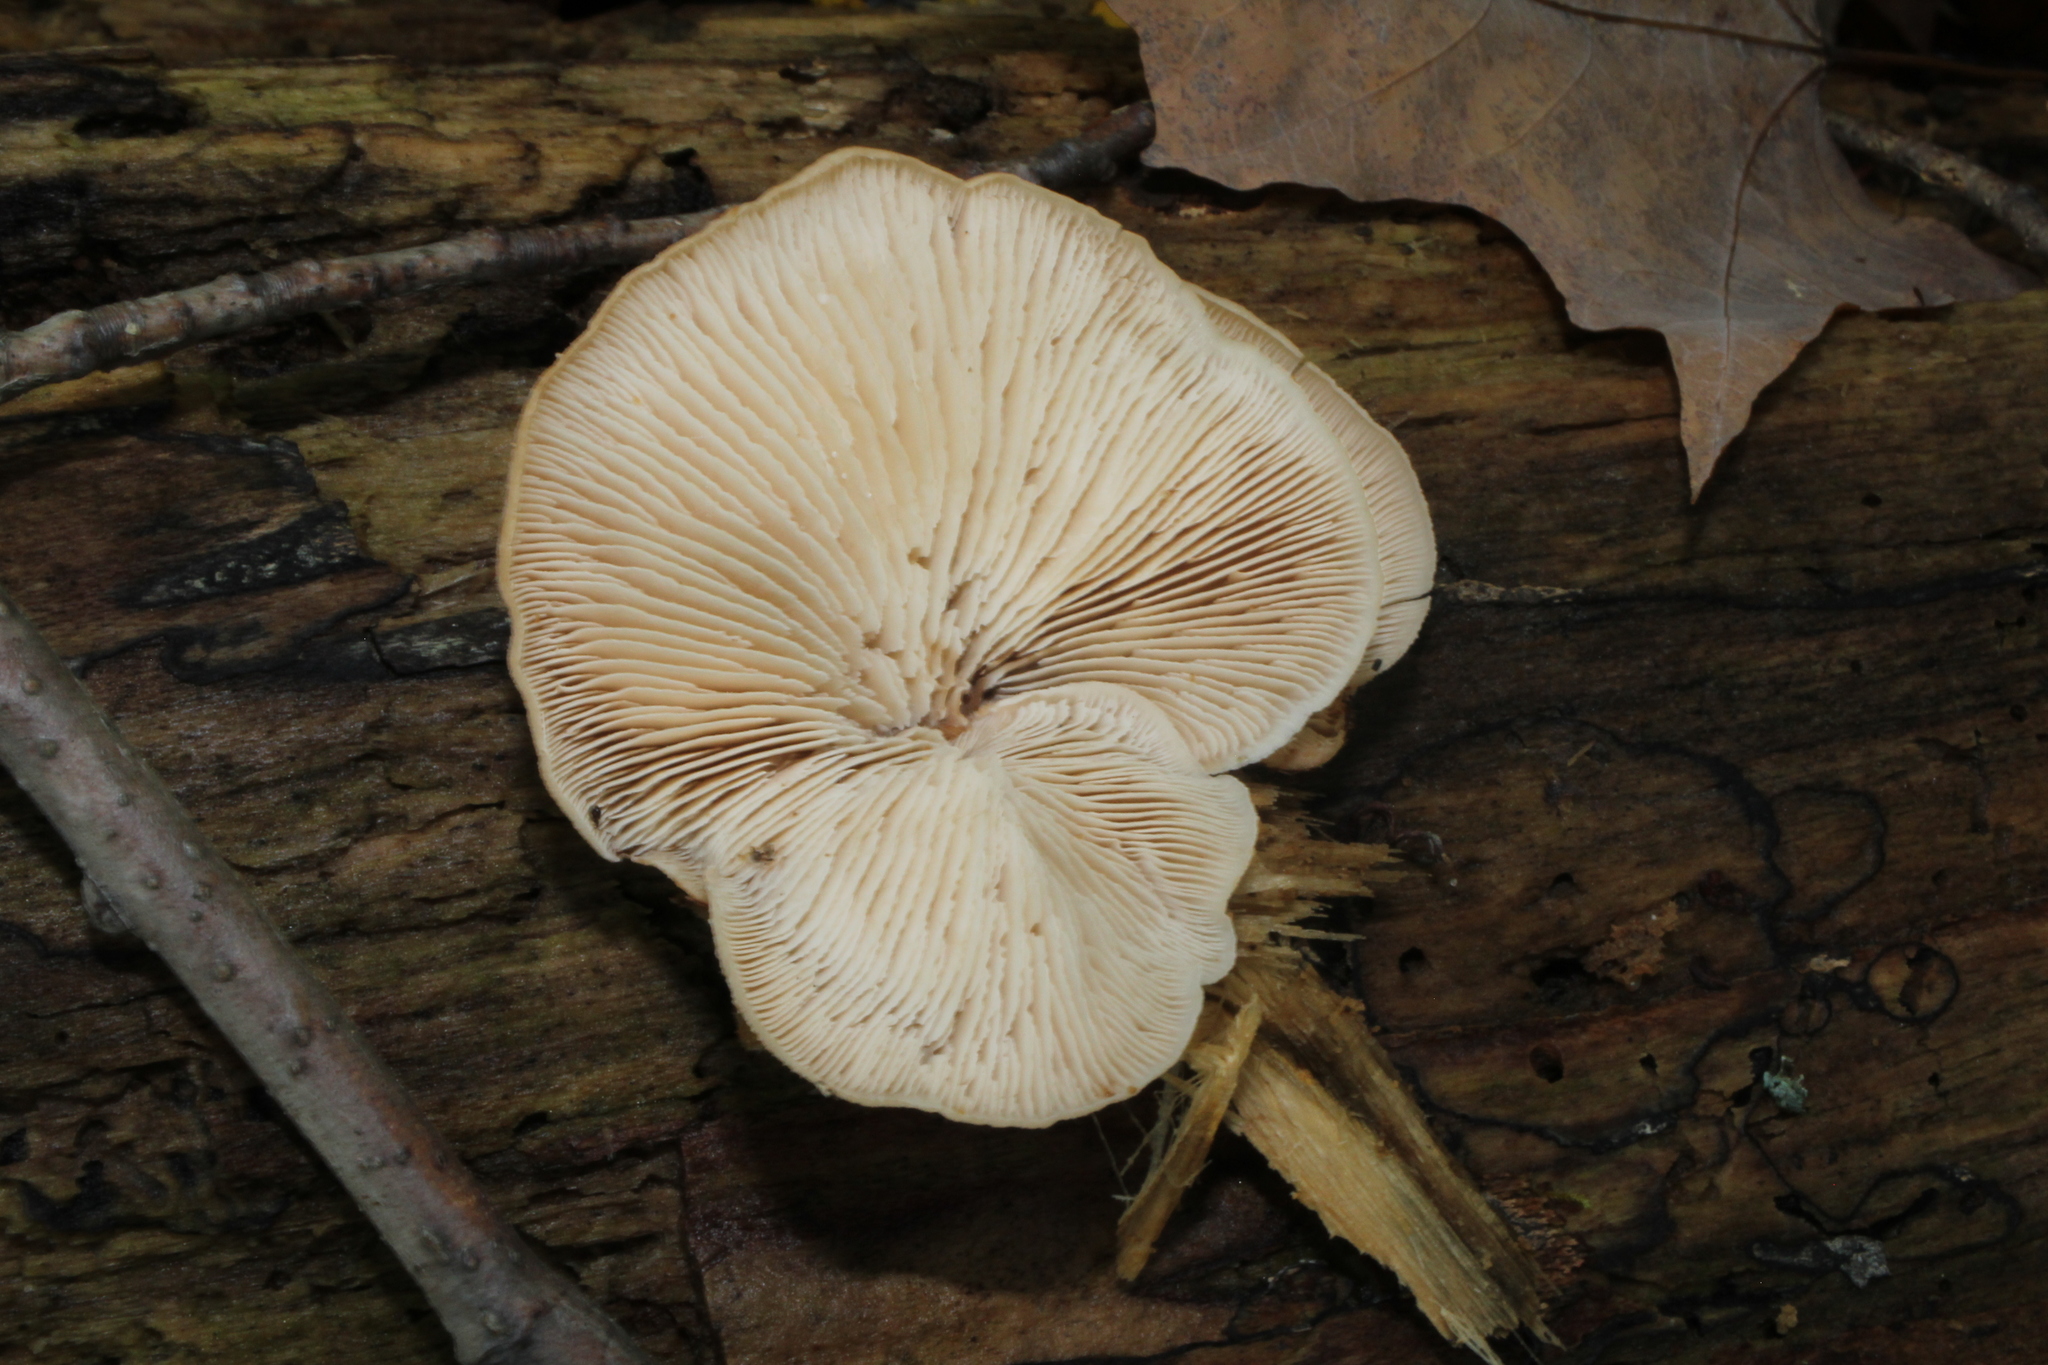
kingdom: Fungi
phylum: Basidiomycota
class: Agaricomycetes
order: Russulales
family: Auriscalpiaceae
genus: Lentinellus
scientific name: Lentinellus ursinus
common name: Bear lentinus
